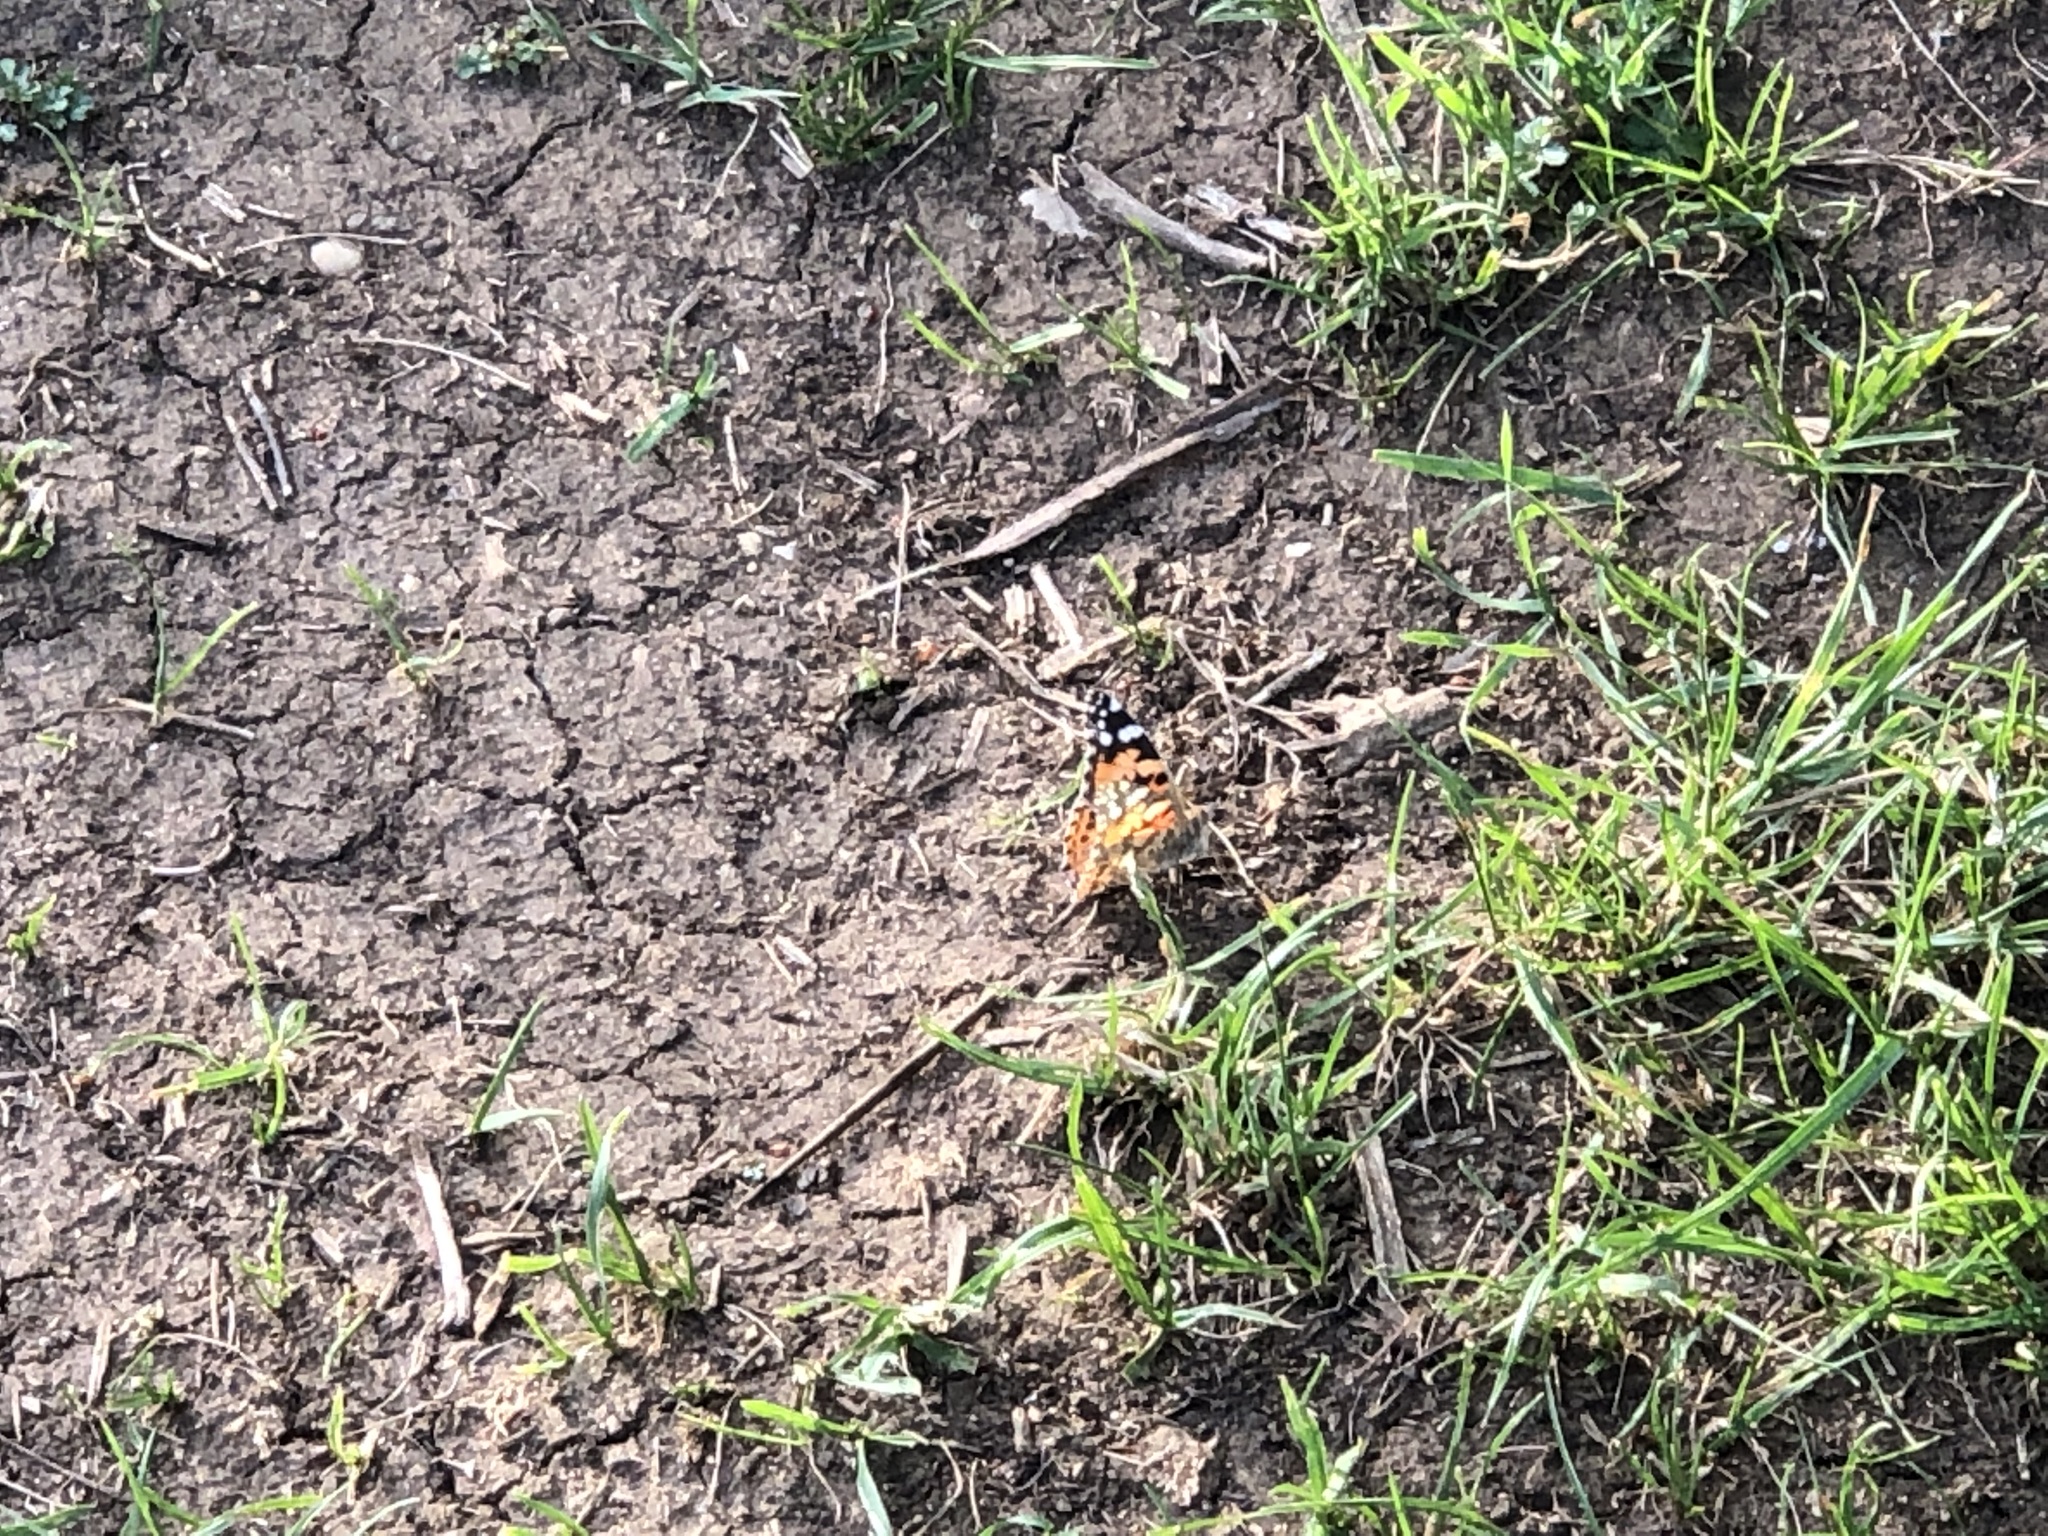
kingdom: Animalia
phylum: Arthropoda
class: Insecta
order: Lepidoptera
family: Nymphalidae
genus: Vanessa
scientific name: Vanessa cardui
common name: Painted lady
